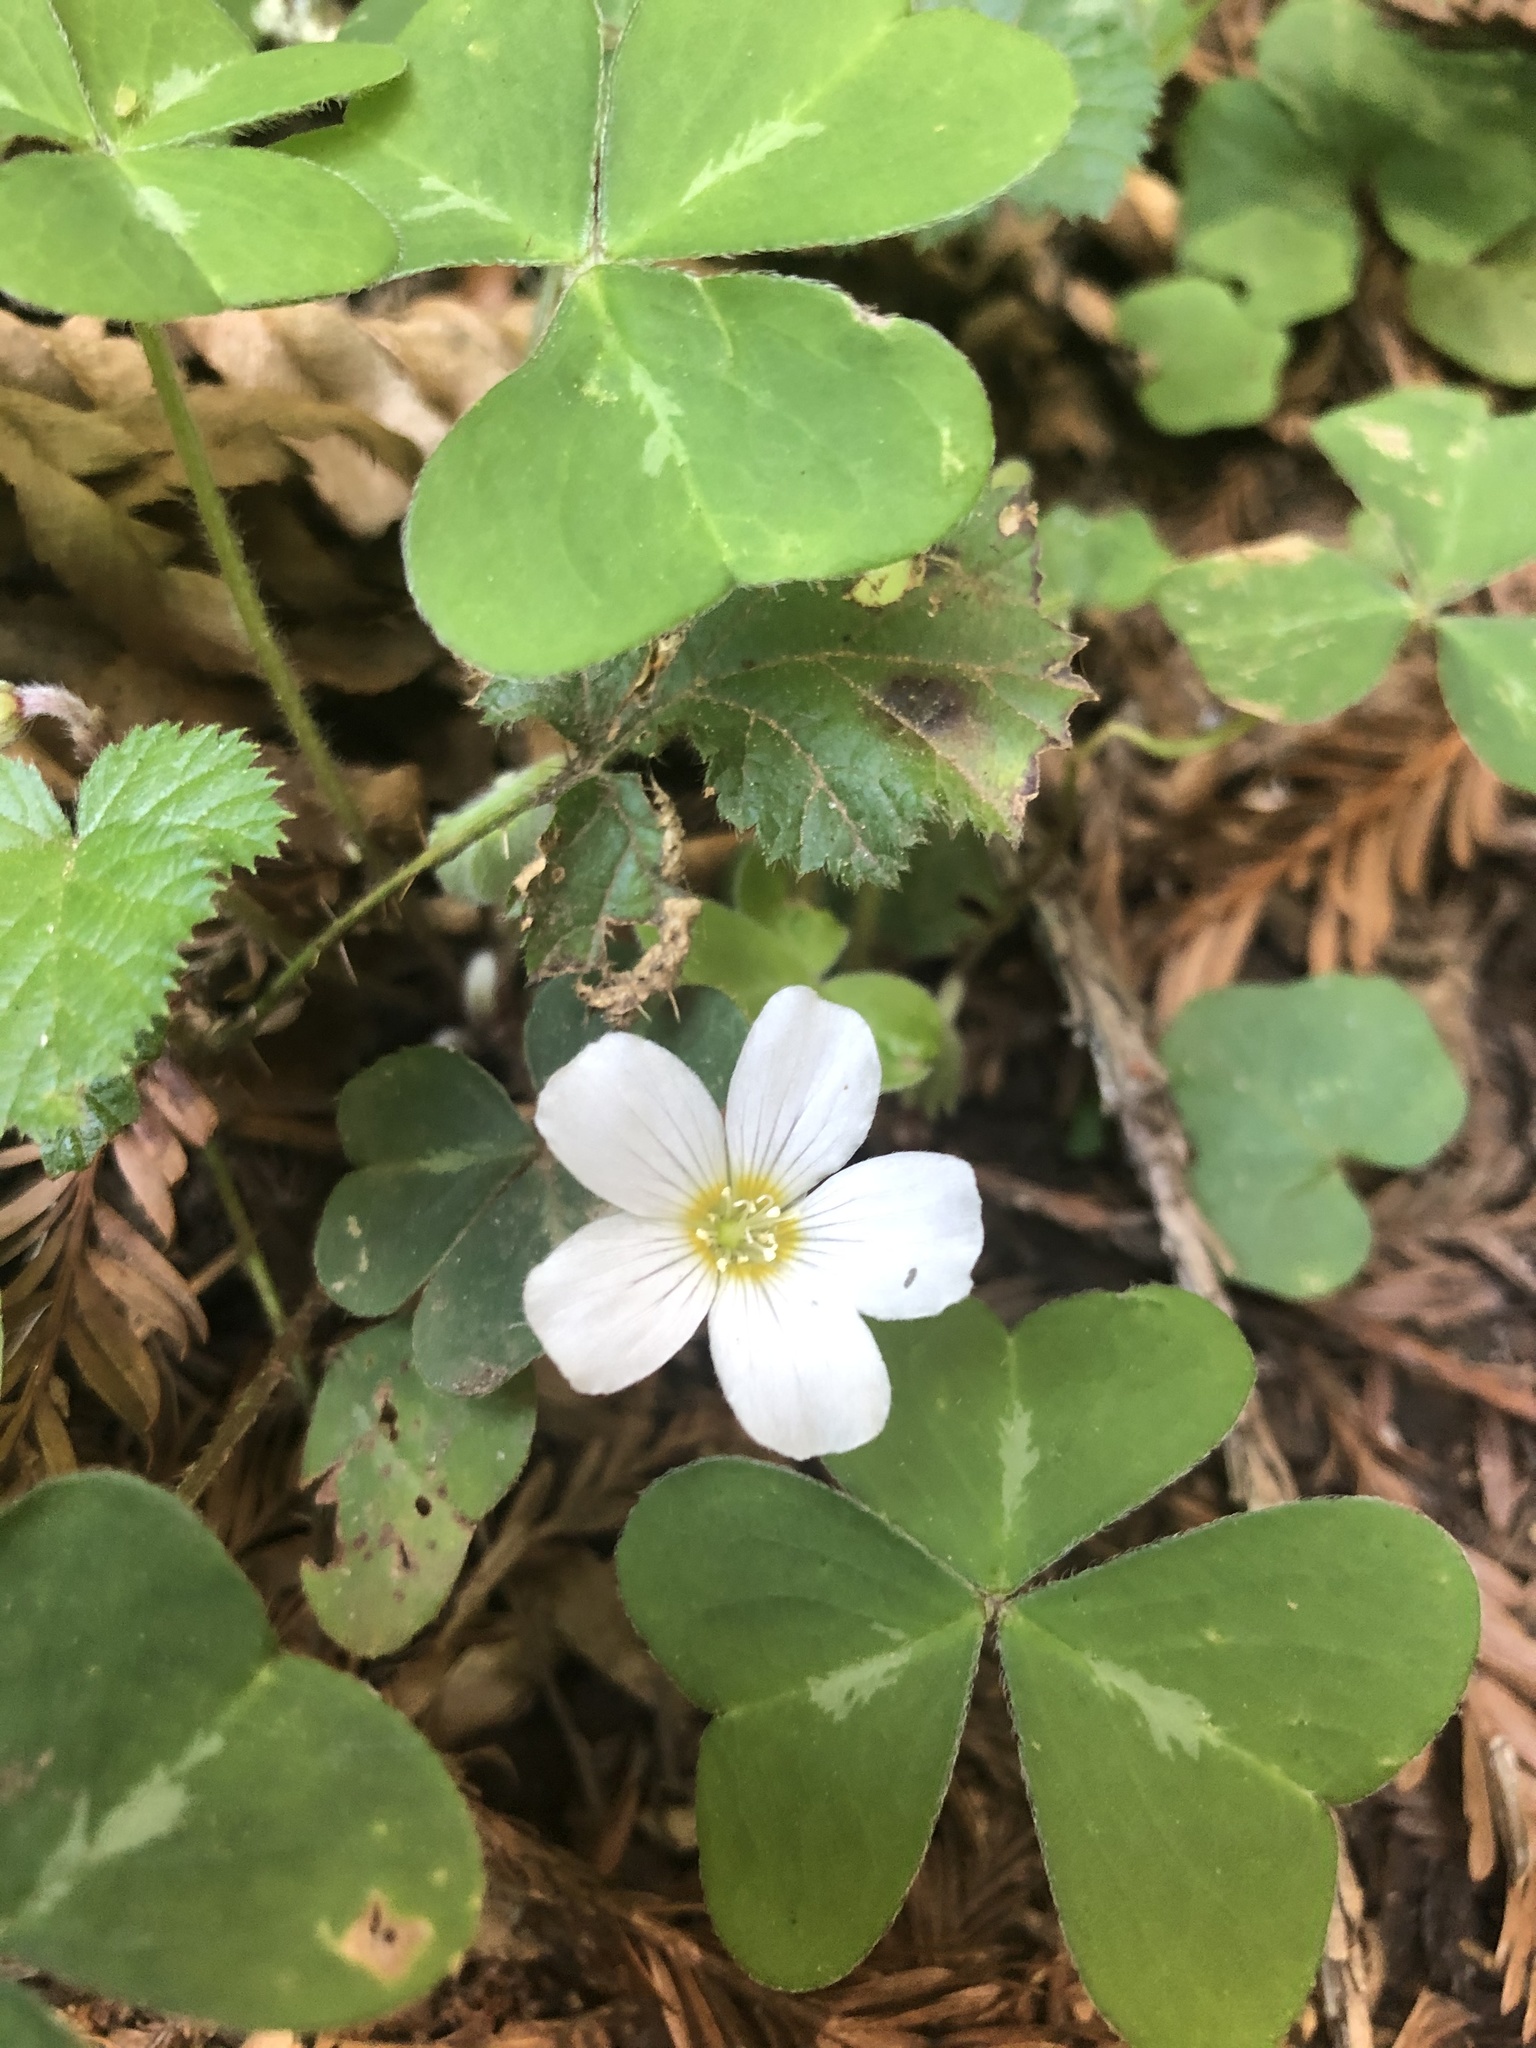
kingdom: Plantae
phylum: Tracheophyta
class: Magnoliopsida
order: Oxalidales
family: Oxalidaceae
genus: Oxalis
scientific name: Oxalis oregana
